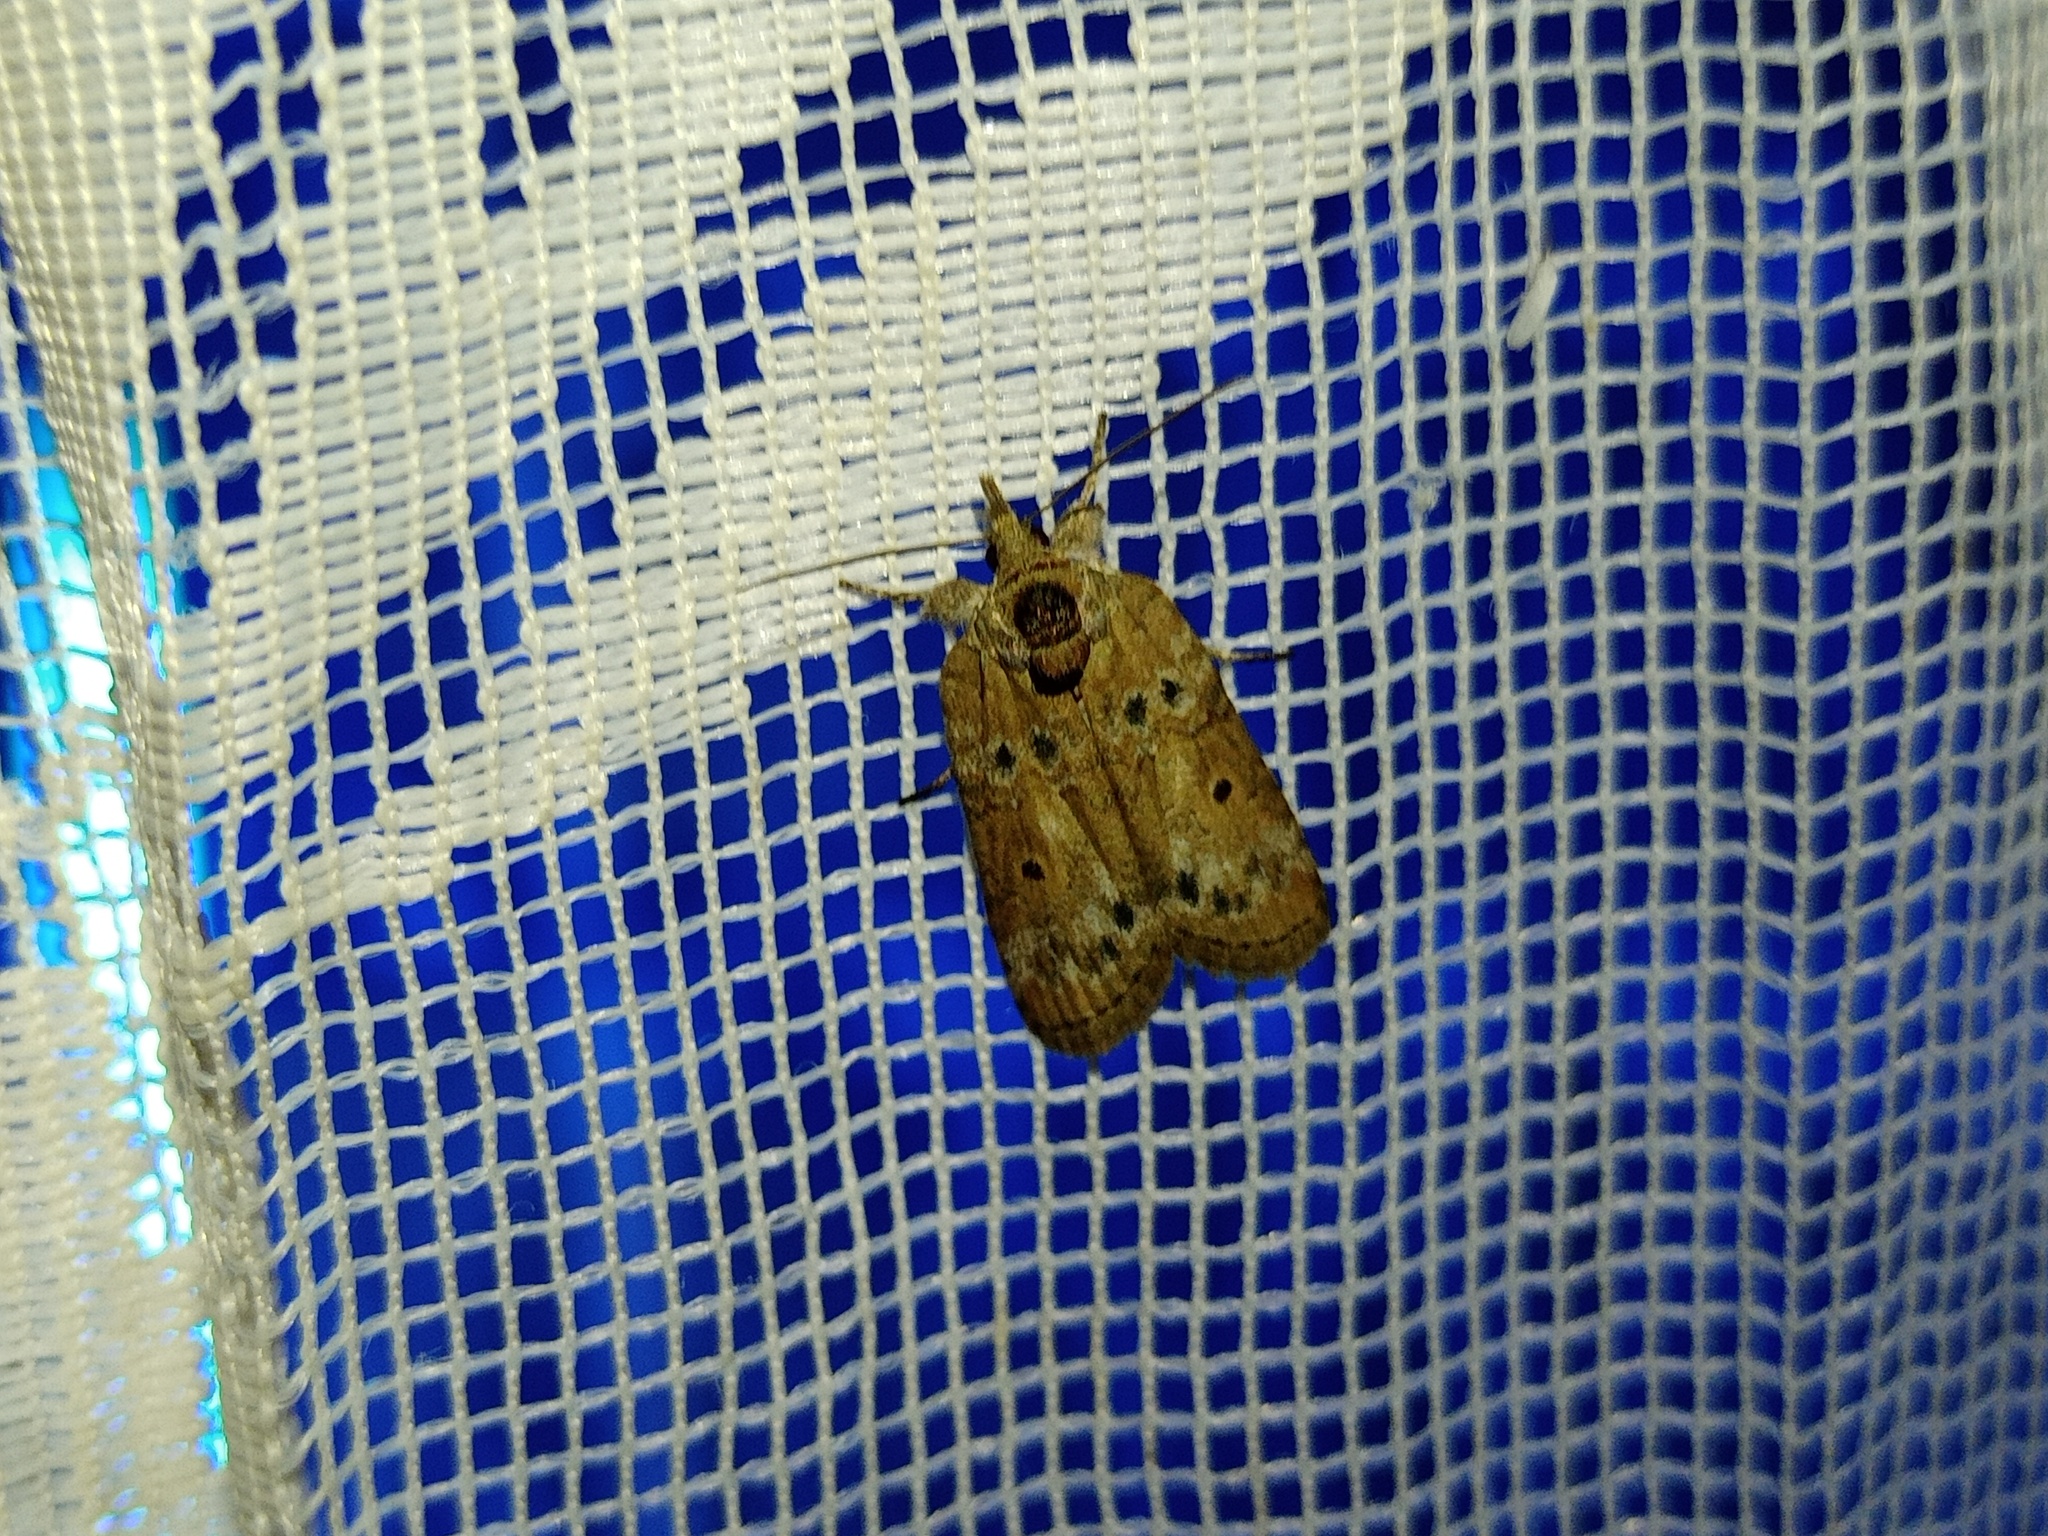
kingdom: Animalia
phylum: Arthropoda
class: Insecta
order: Lepidoptera
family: Nolidae
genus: Nycteola
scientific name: Nycteola revayana
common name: Oak nycteoline
